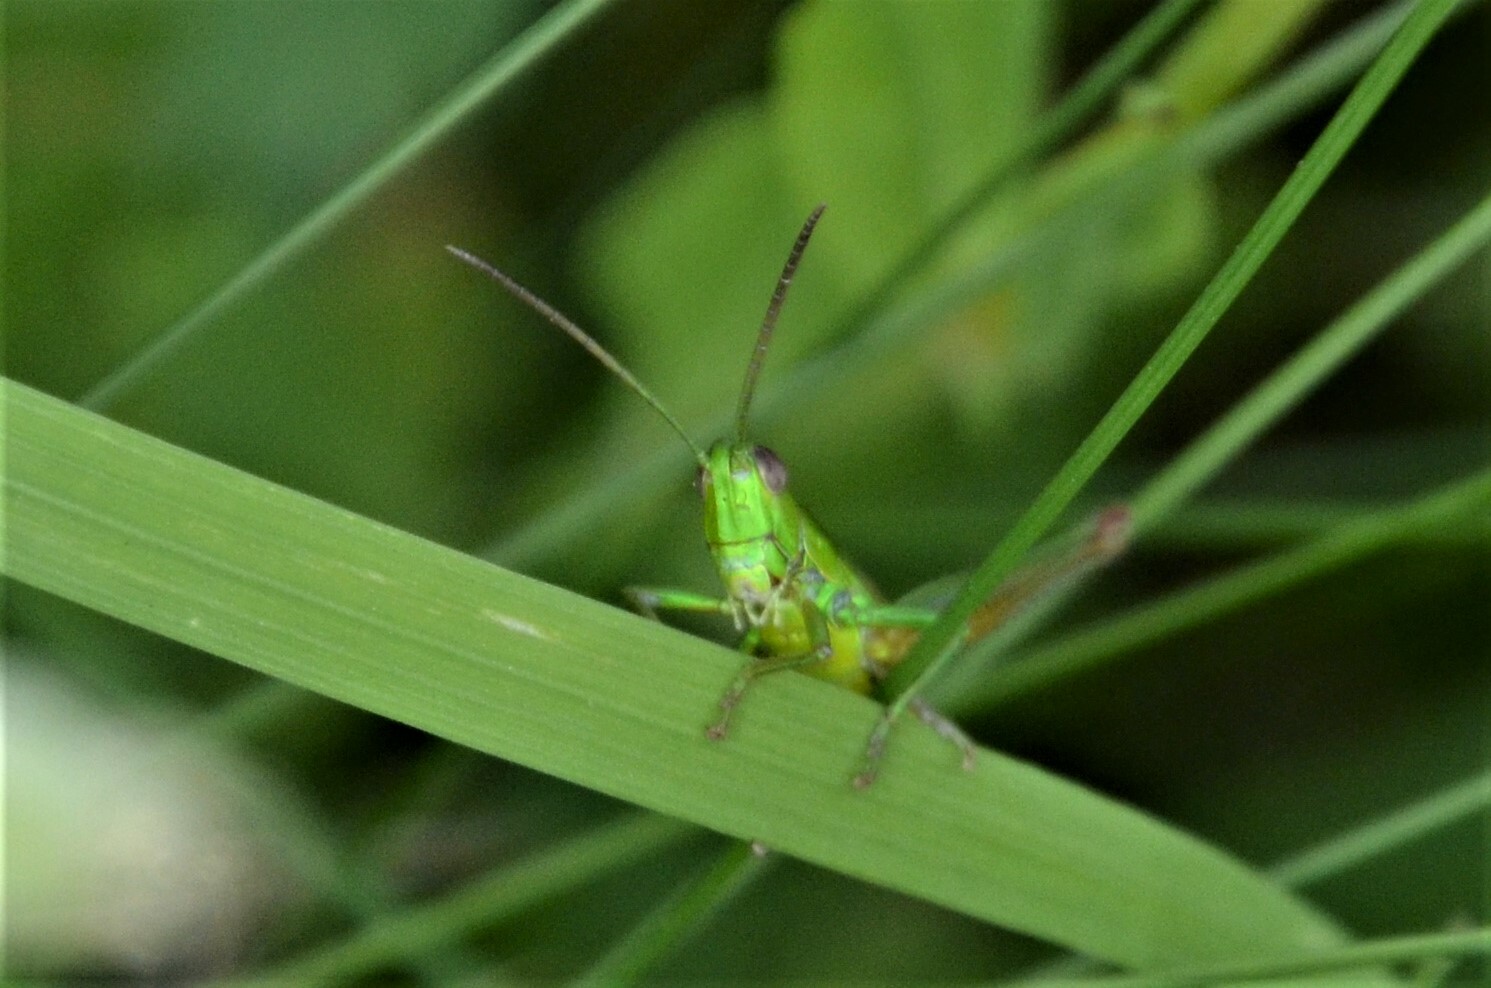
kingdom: Animalia
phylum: Arthropoda
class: Insecta
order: Orthoptera
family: Acrididae
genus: Euthystira
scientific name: Euthystira brachyptera
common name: Small gold grasshopper
